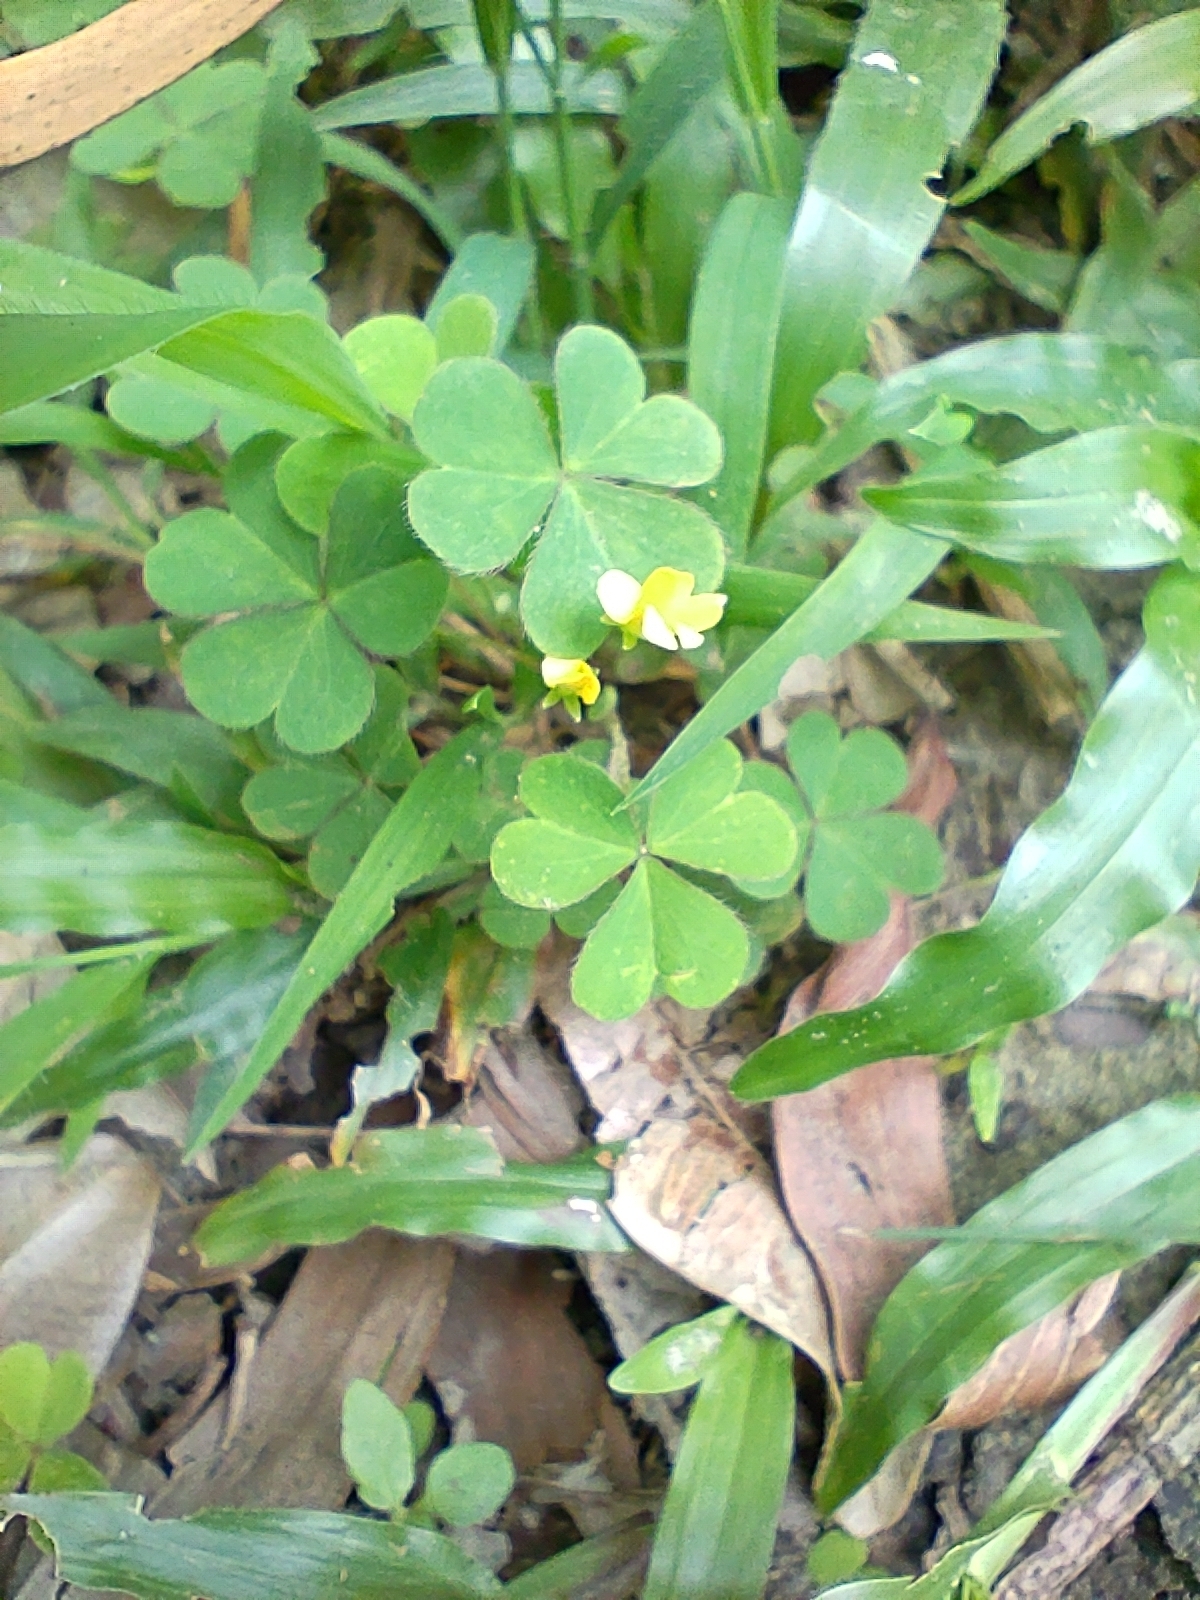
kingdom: Plantae
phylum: Tracheophyta
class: Magnoliopsida
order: Oxalidales
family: Oxalidaceae
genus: Oxalis
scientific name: Oxalis corniculata
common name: Procumbent yellow-sorrel
